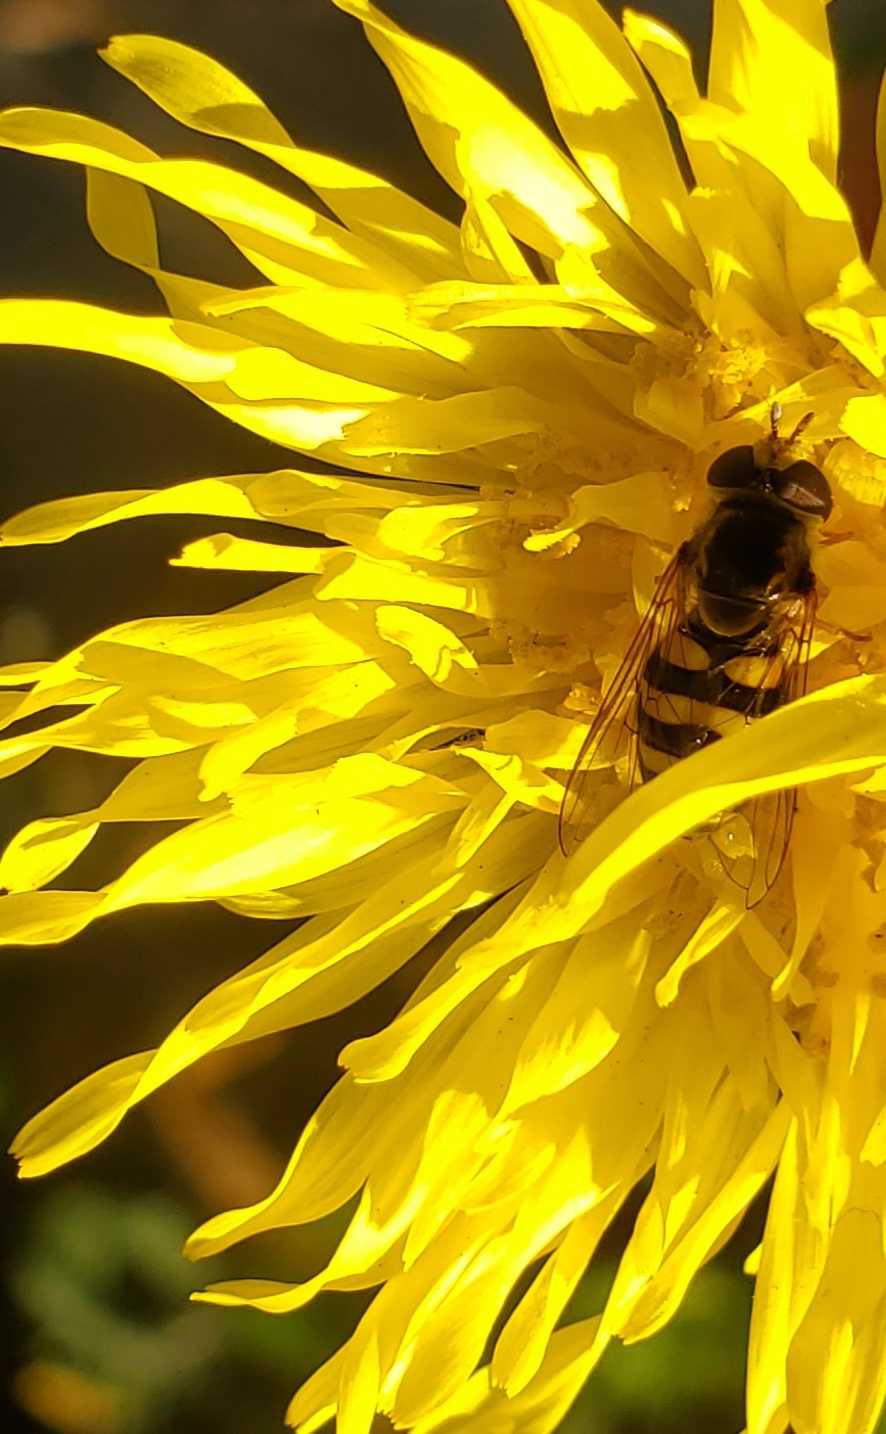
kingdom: Animalia
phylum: Arthropoda
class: Insecta
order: Diptera
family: Syrphidae
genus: Eupeodes
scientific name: Eupeodes fumipennis
